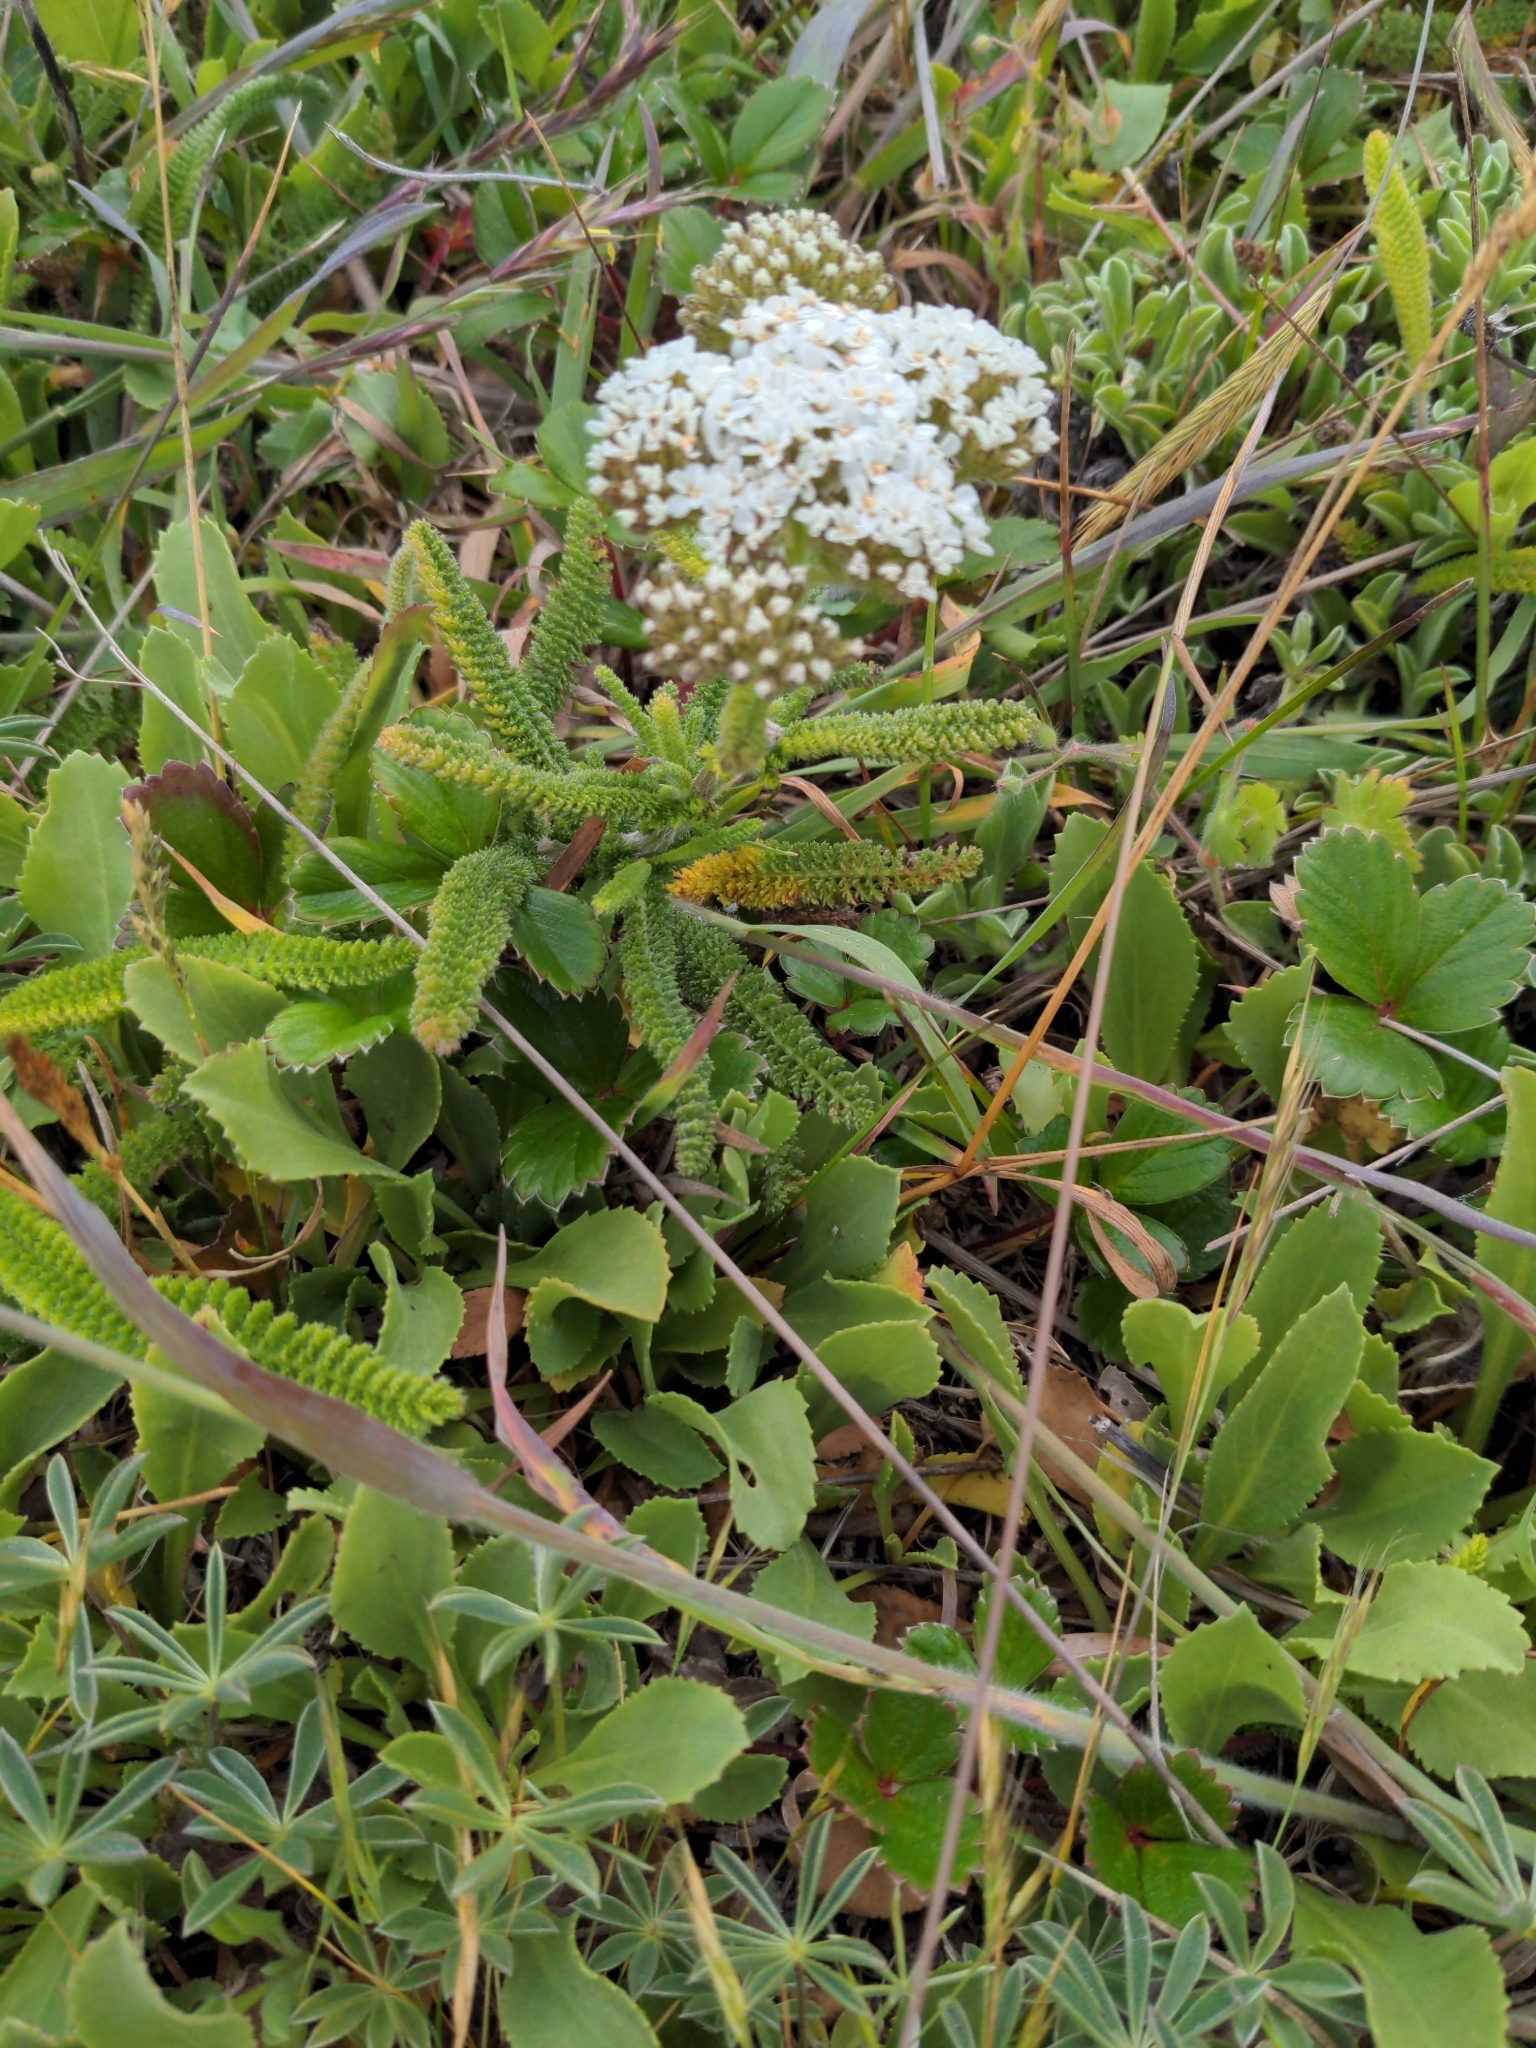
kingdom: Plantae
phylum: Tracheophyta
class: Magnoliopsida
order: Asterales
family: Asteraceae
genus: Achillea
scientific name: Achillea millefolium
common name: Yarrow
